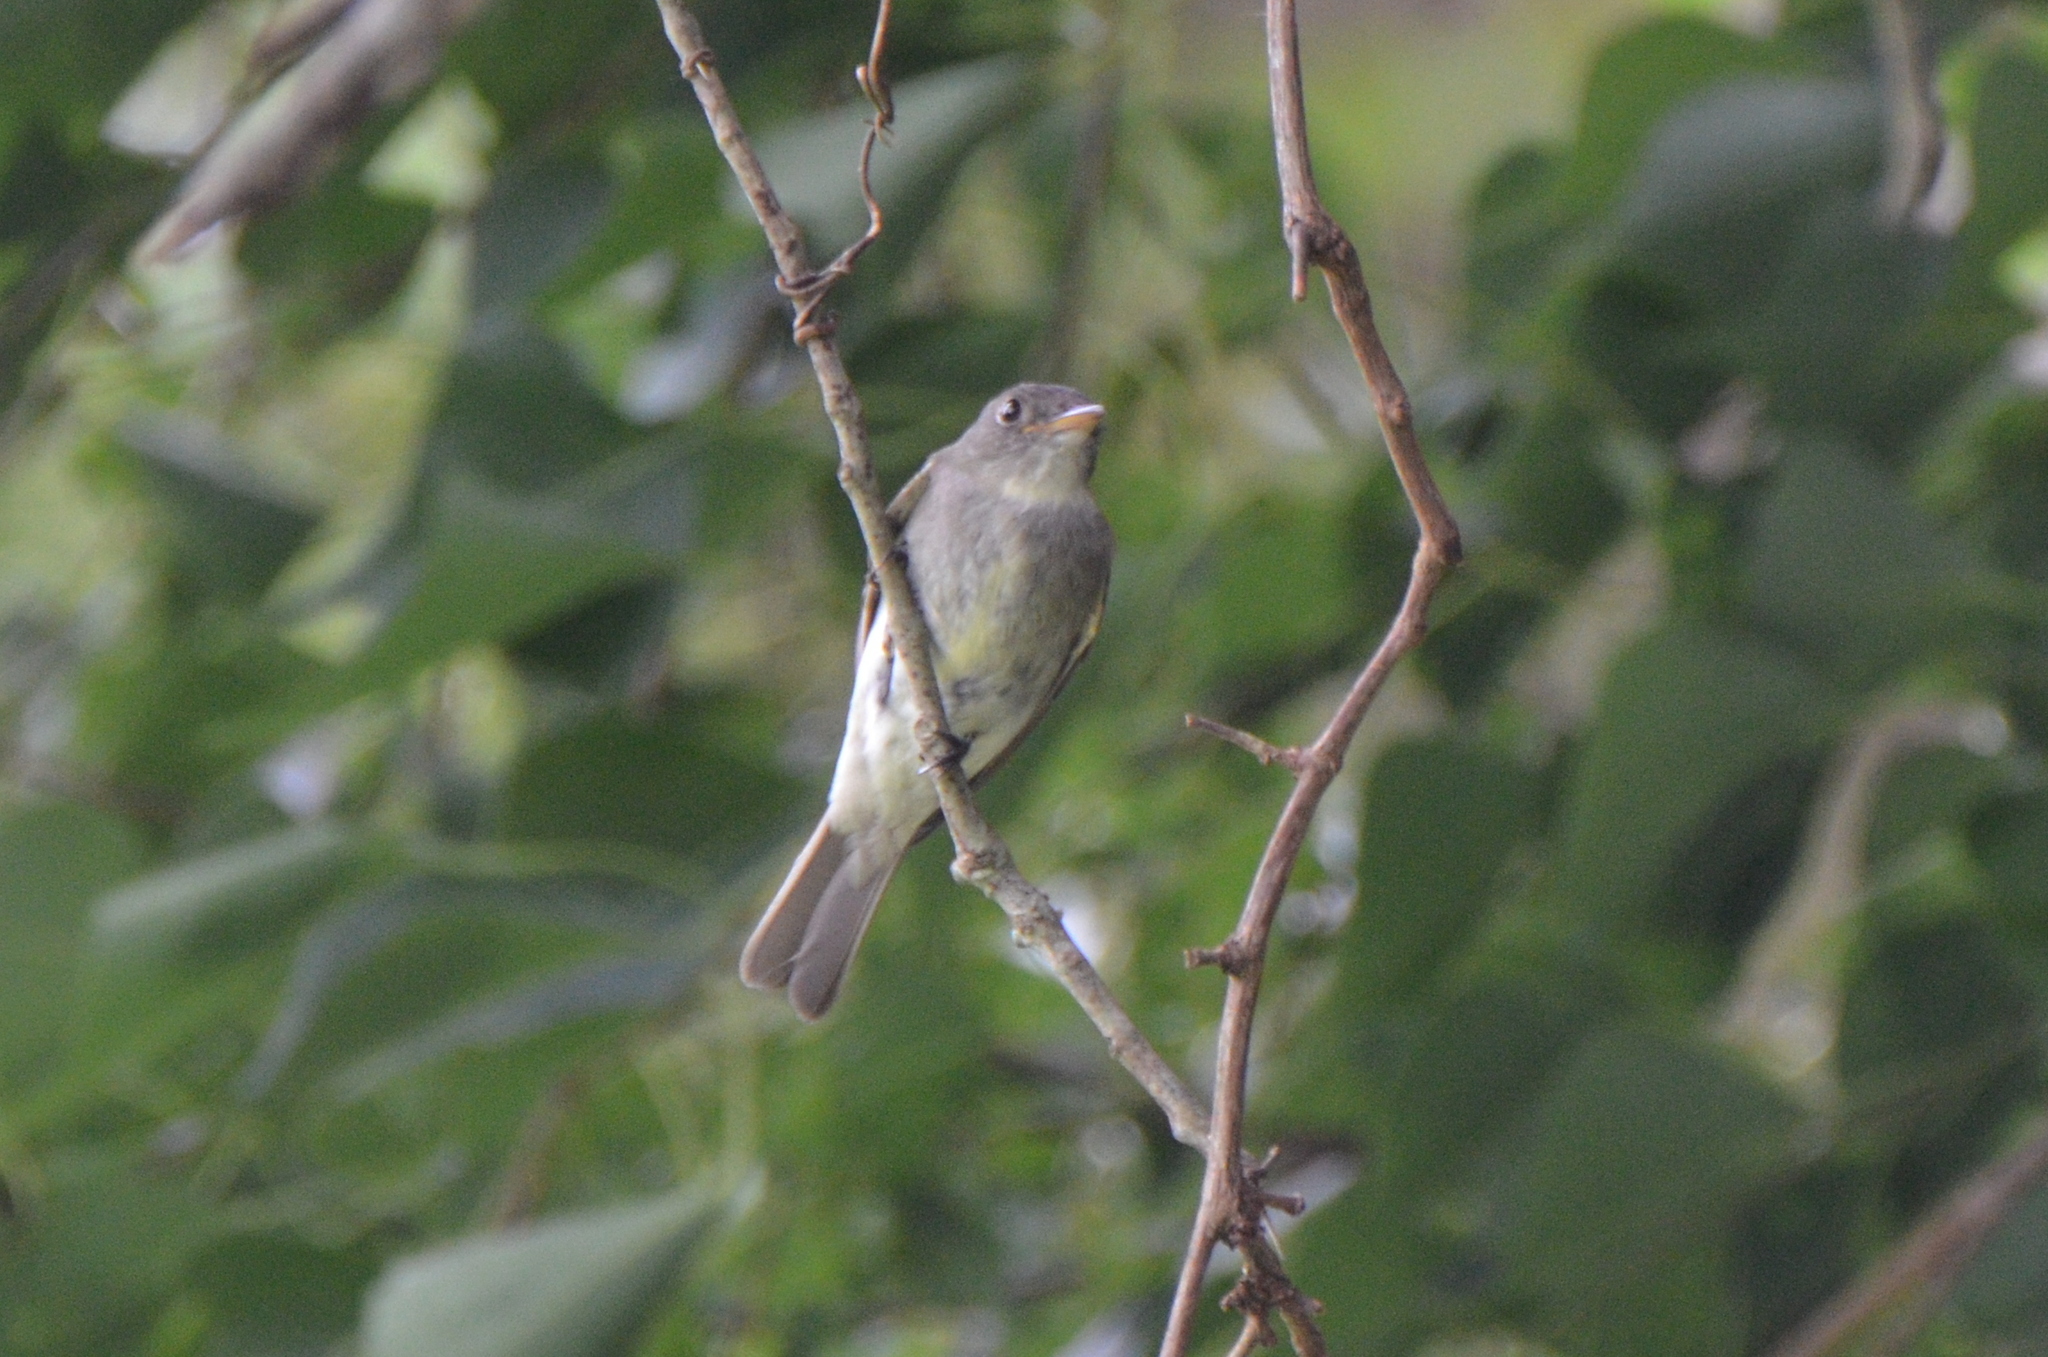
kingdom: Animalia
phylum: Chordata
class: Aves
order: Passeriformes
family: Tyrannidae
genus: Contopus
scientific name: Contopus virens
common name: Eastern wood-pewee
